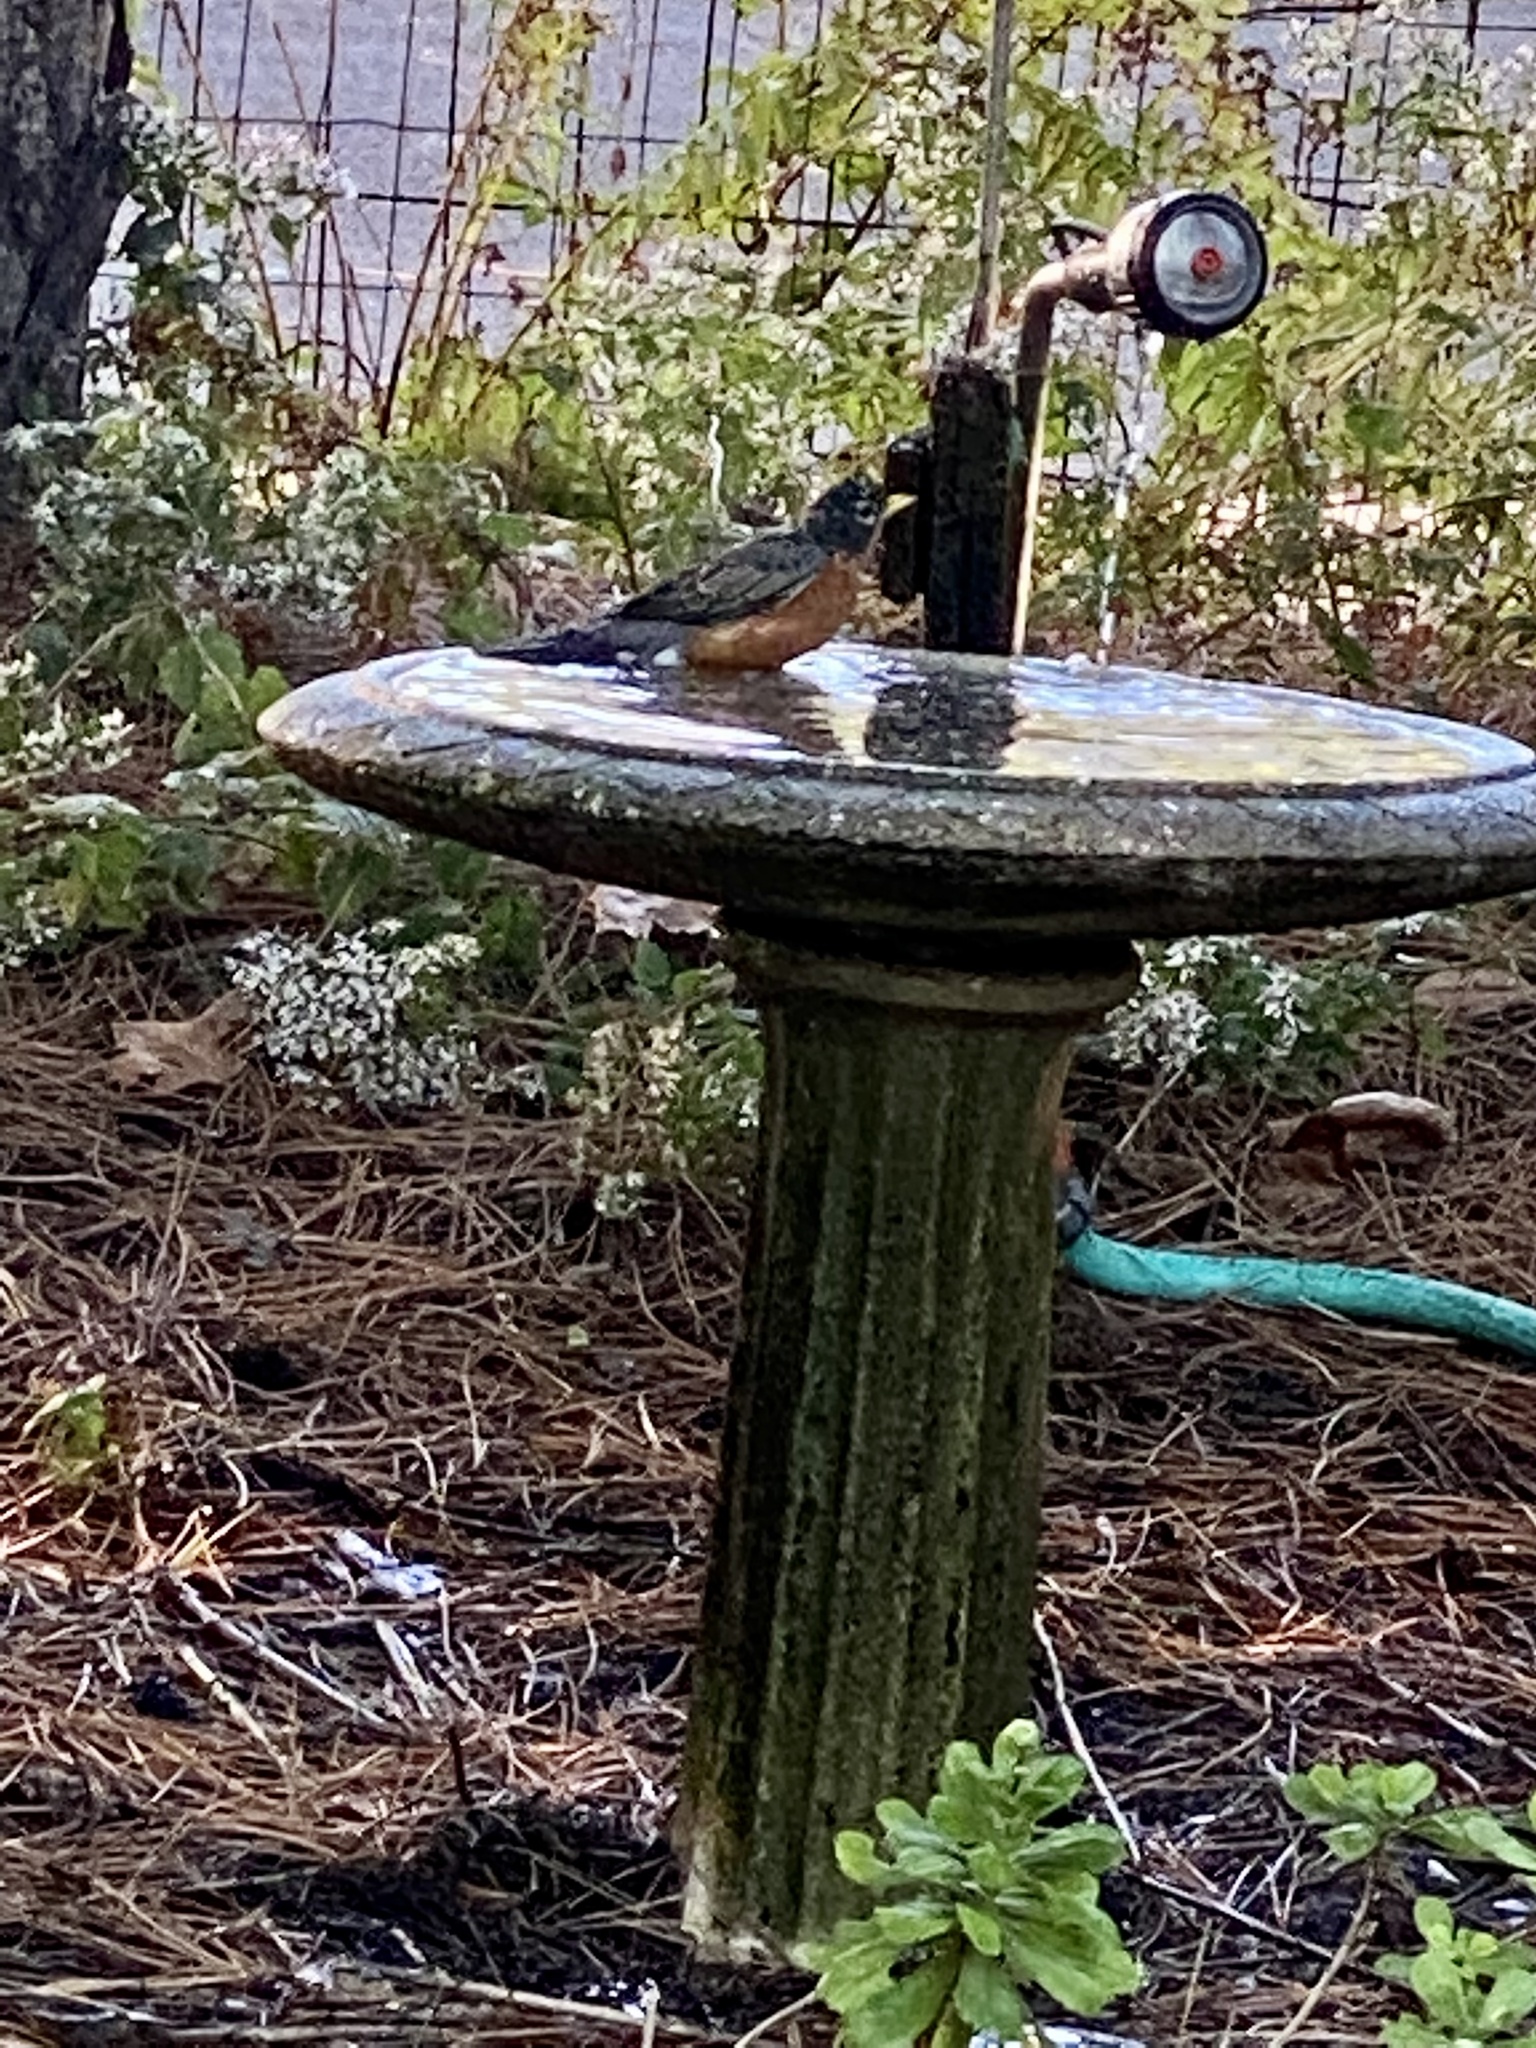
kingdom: Animalia
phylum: Chordata
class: Aves
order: Passeriformes
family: Turdidae
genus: Turdus
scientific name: Turdus migratorius
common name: American robin
